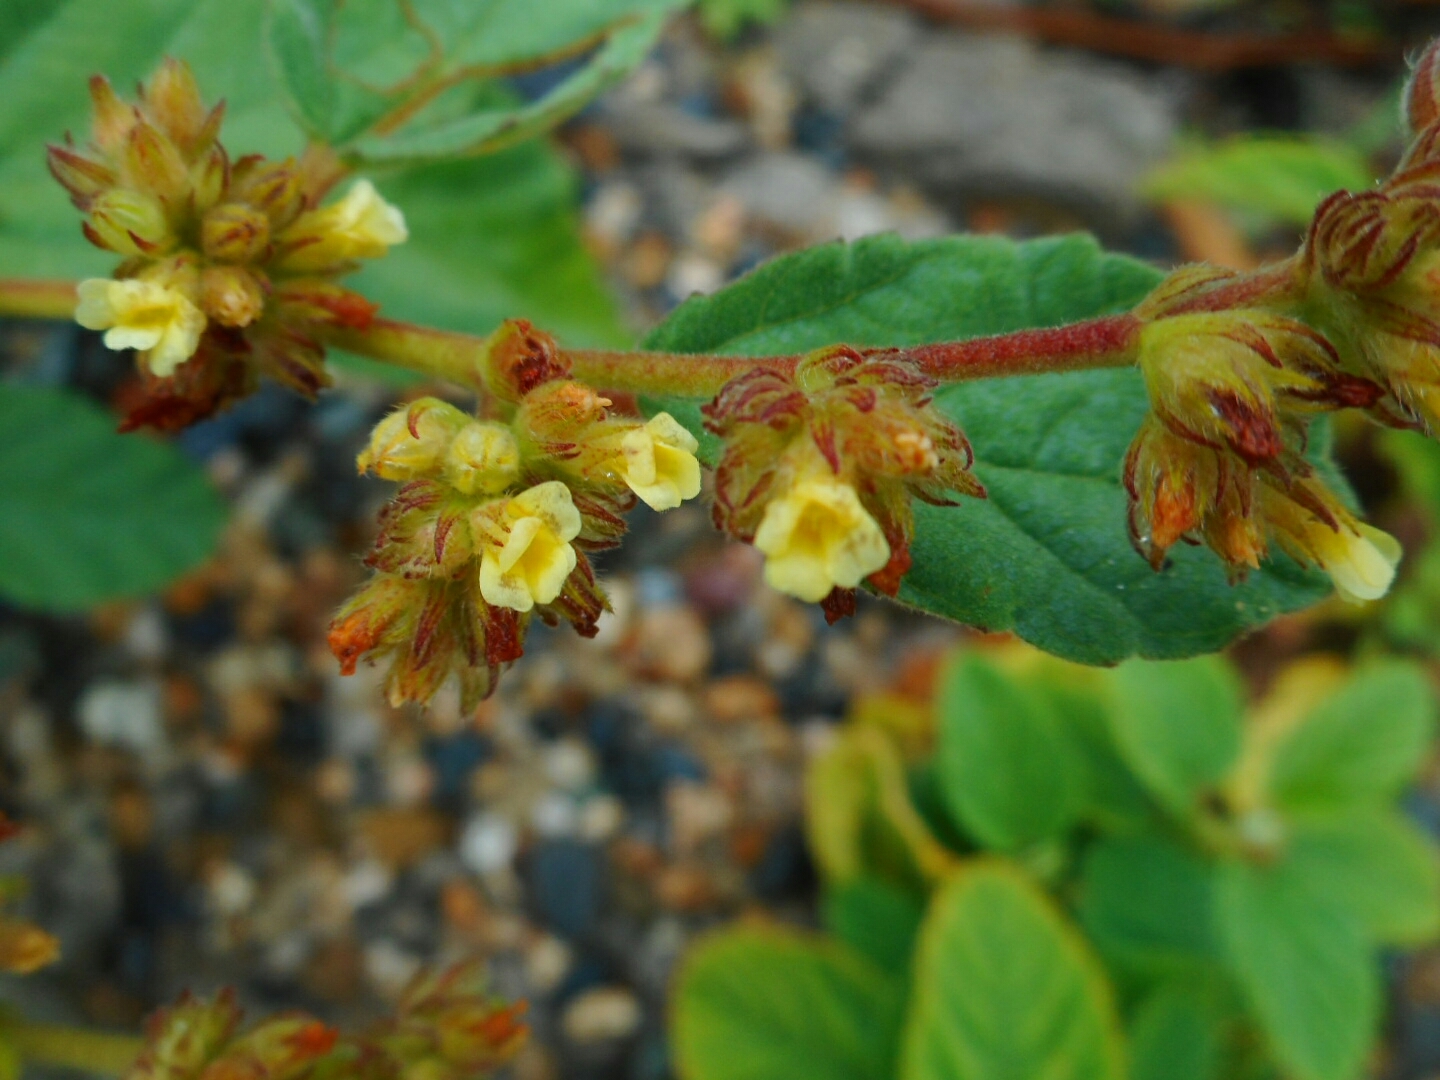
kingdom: Plantae
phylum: Tracheophyta
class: Magnoliopsida
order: Malvales
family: Malvaceae
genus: Waltheria
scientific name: Waltheria indica
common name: Leather-coat
